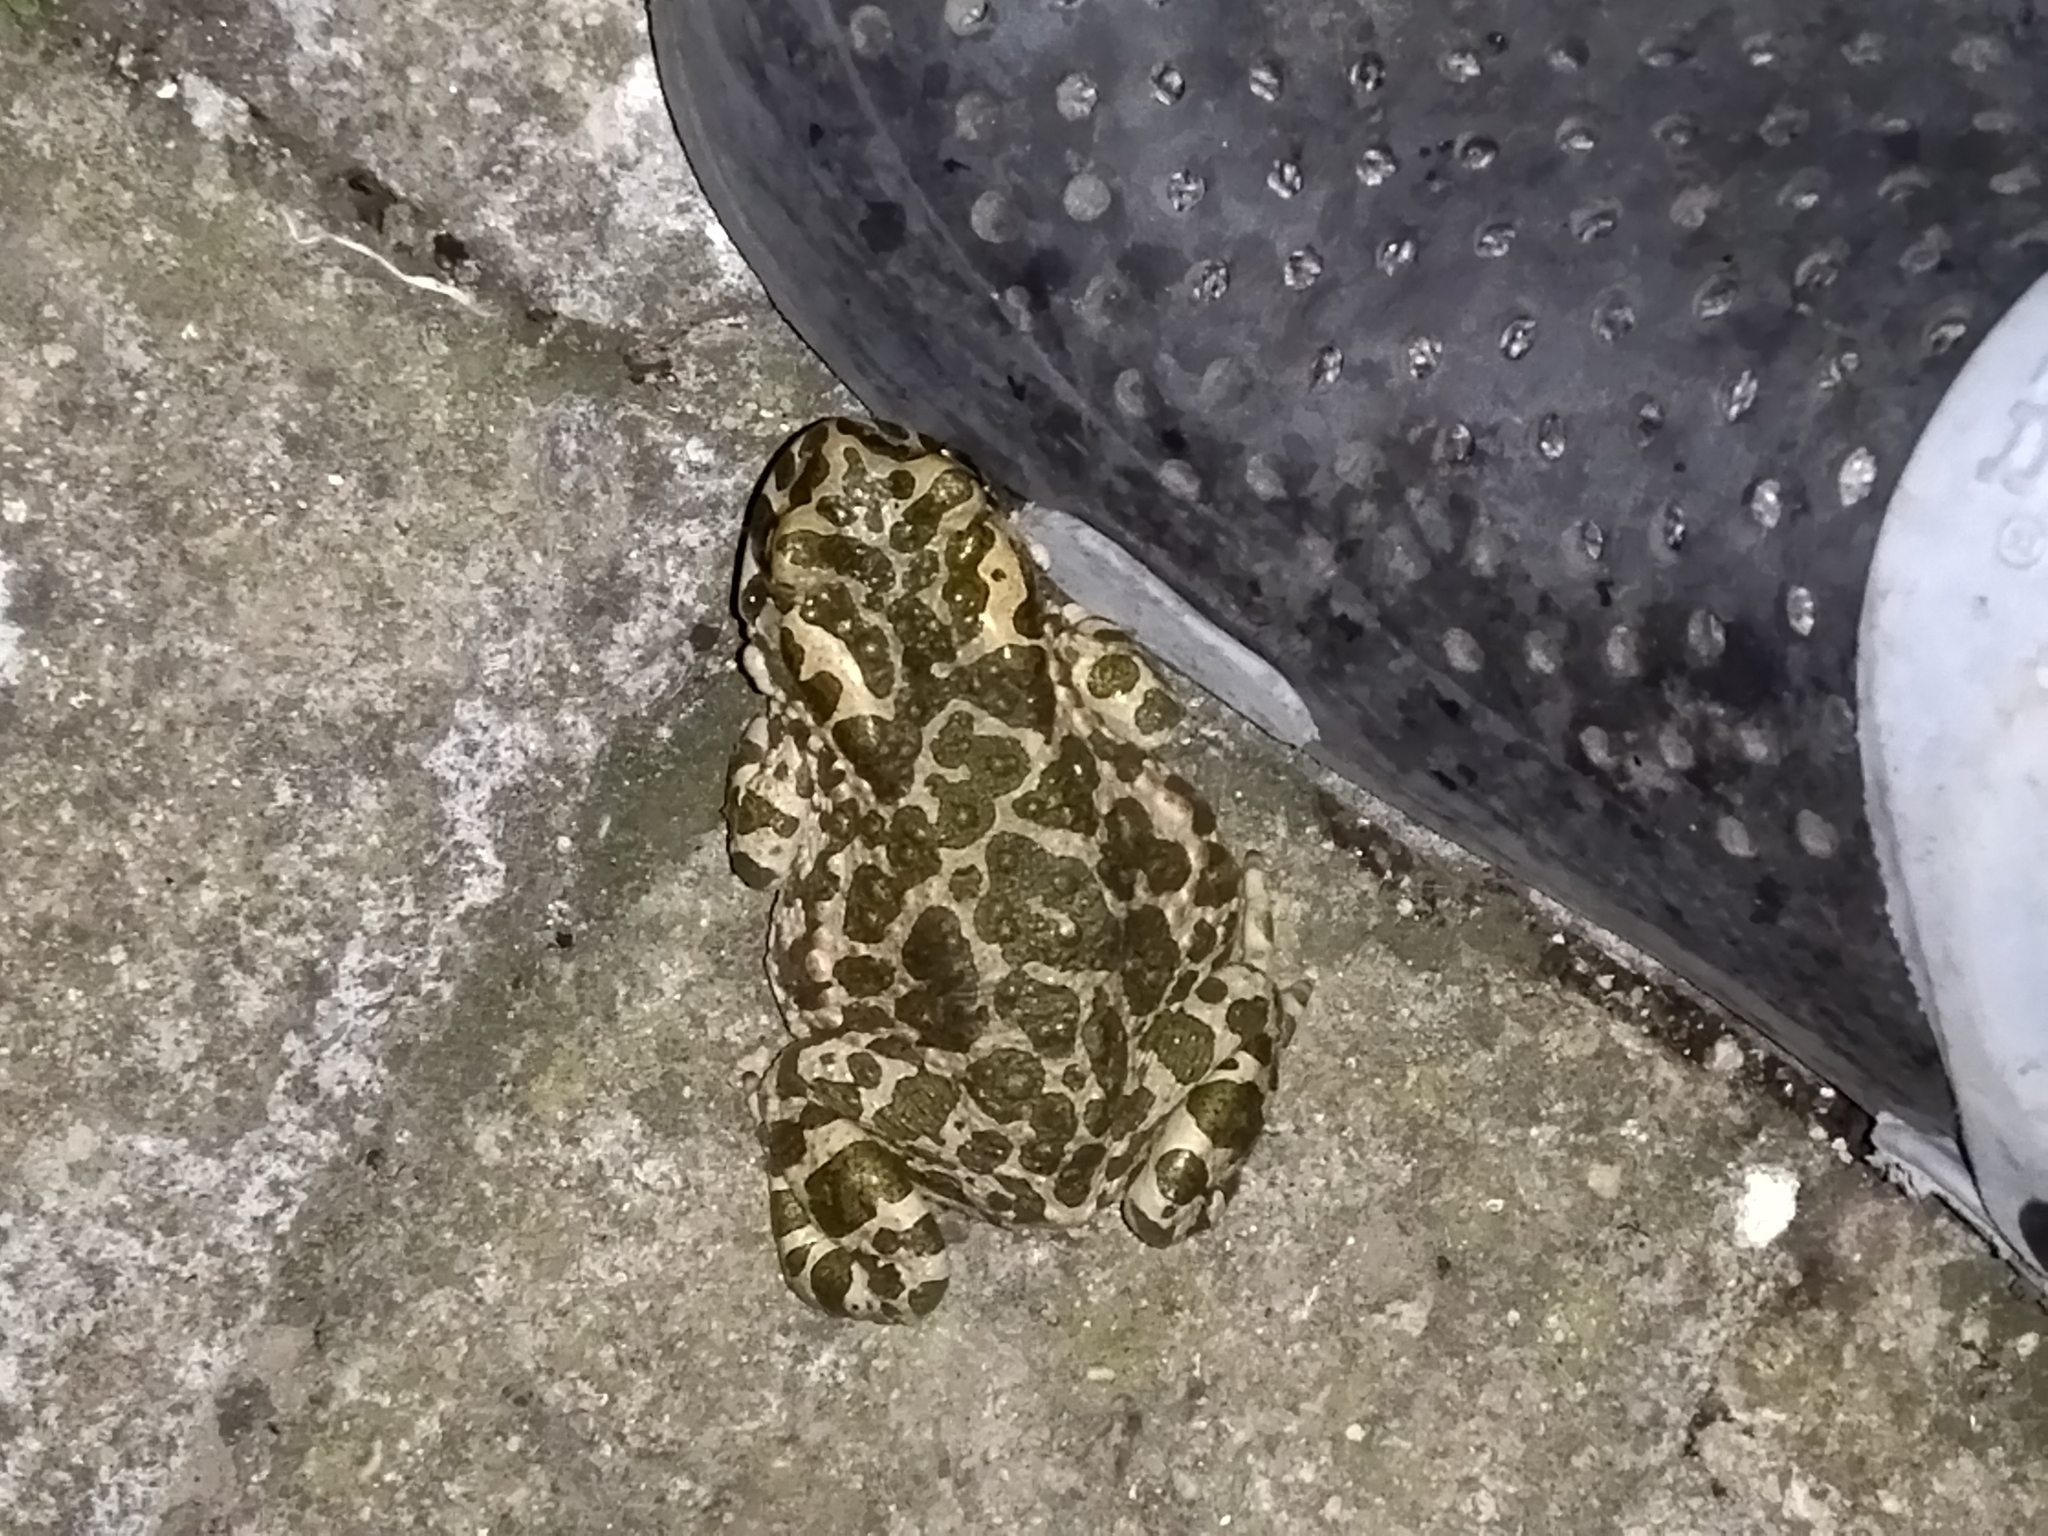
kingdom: Animalia
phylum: Chordata
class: Amphibia
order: Anura
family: Bufonidae
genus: Bufotes
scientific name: Bufotes viridis
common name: European green toad
